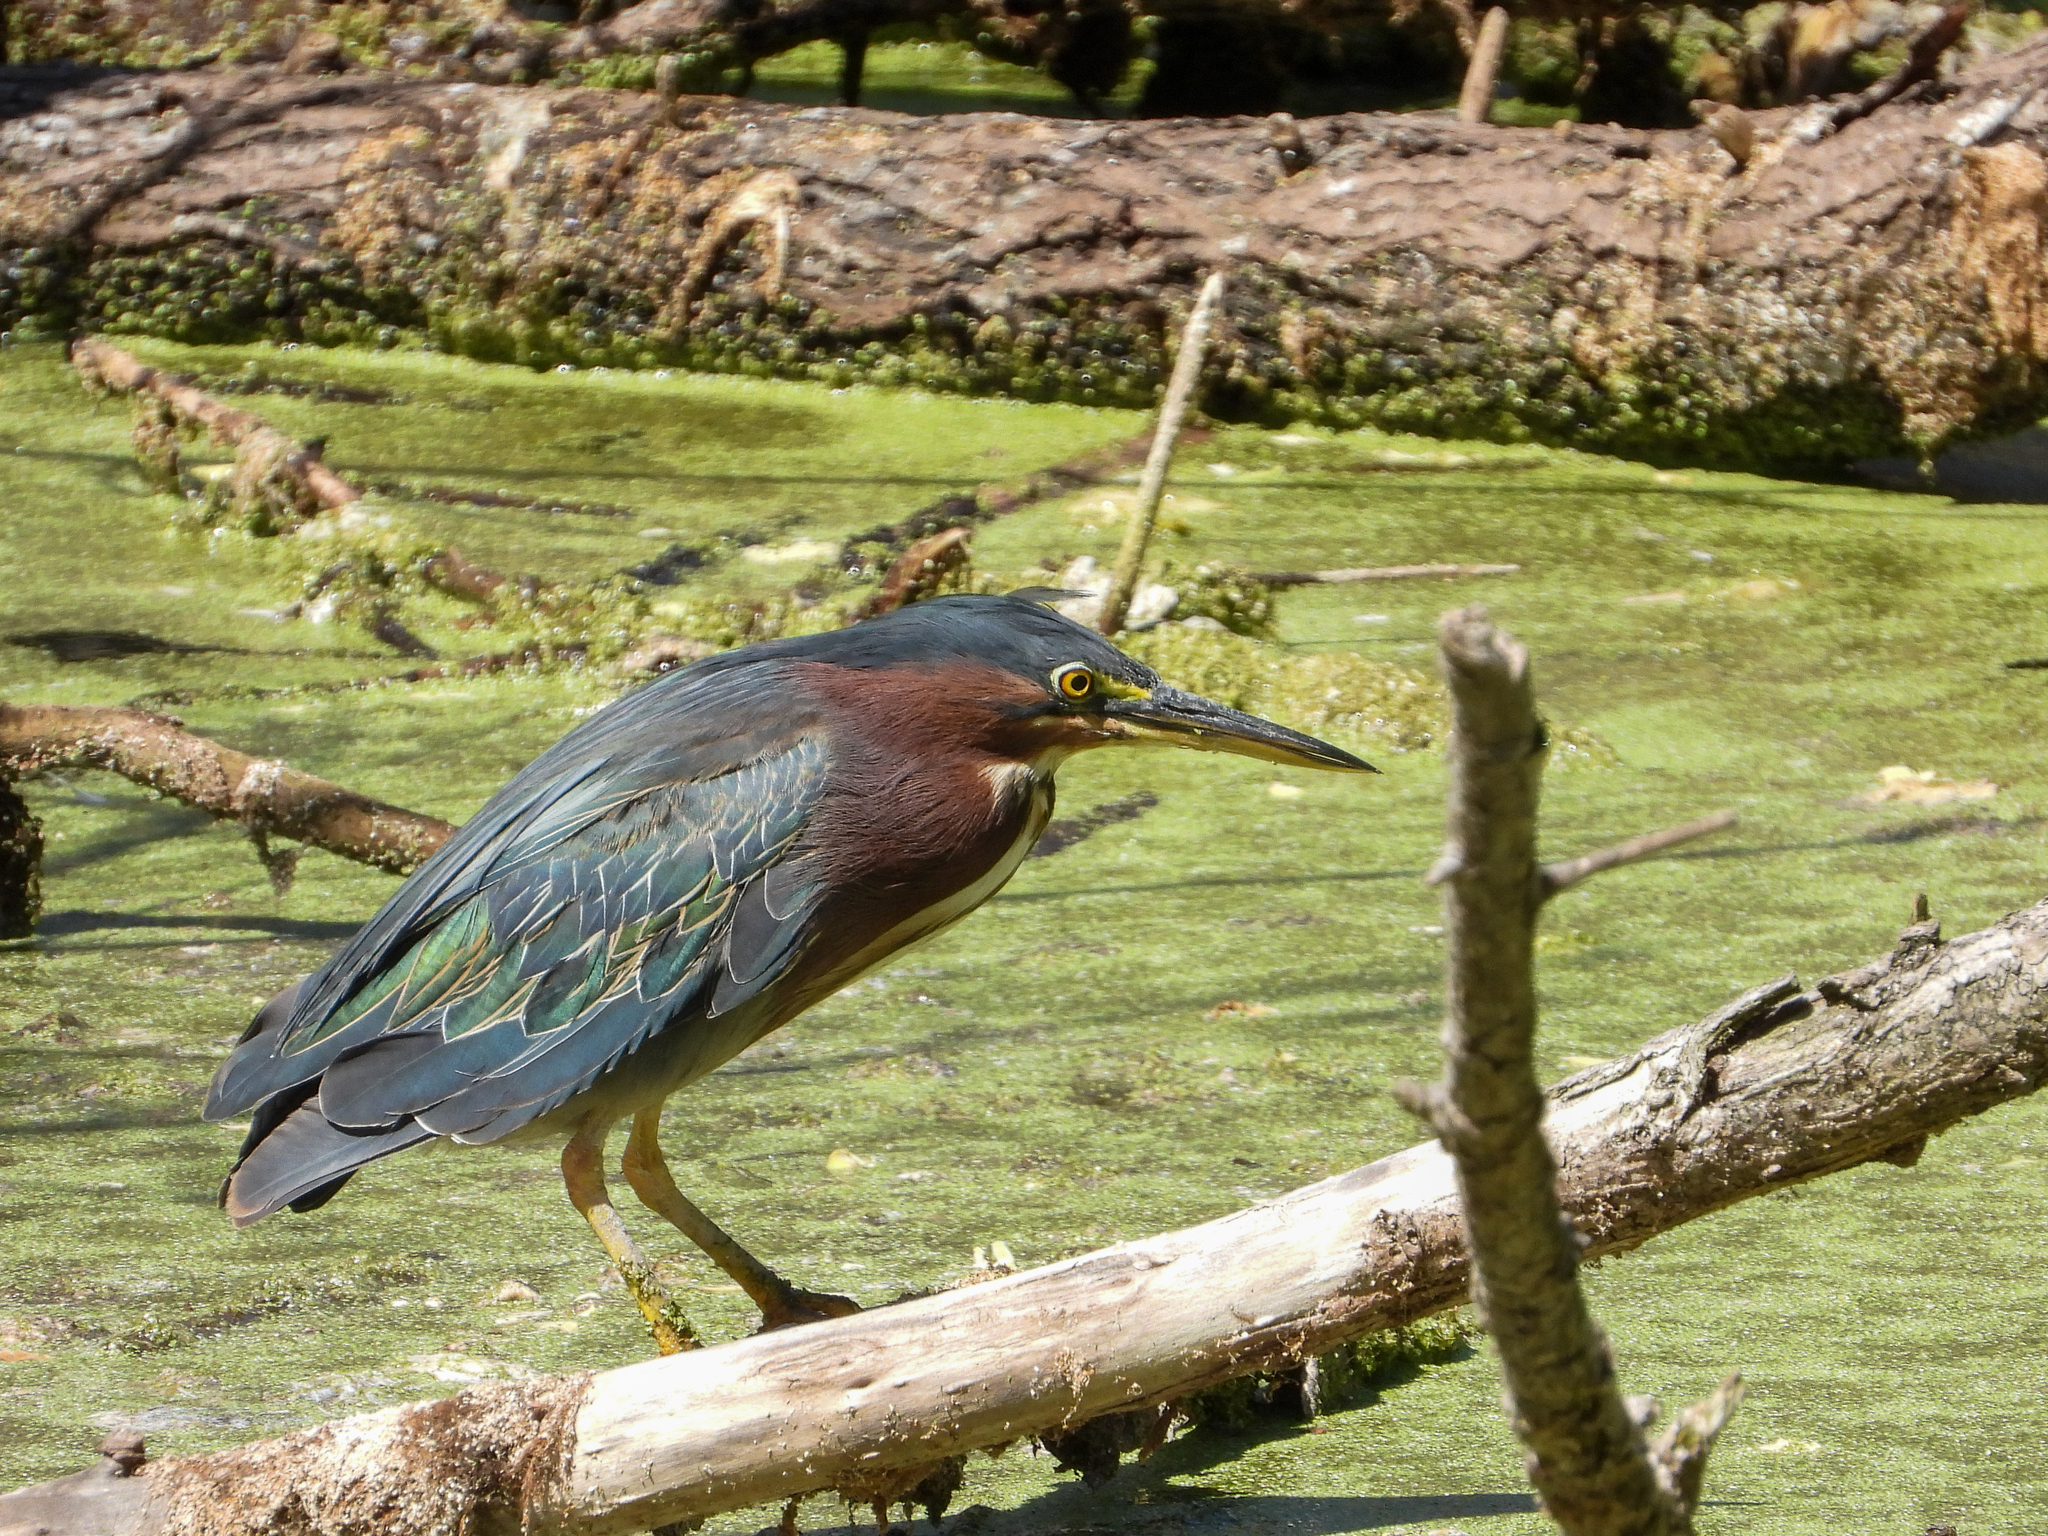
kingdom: Animalia
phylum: Chordata
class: Aves
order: Pelecaniformes
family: Ardeidae
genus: Butorides
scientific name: Butorides virescens
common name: Green heron
